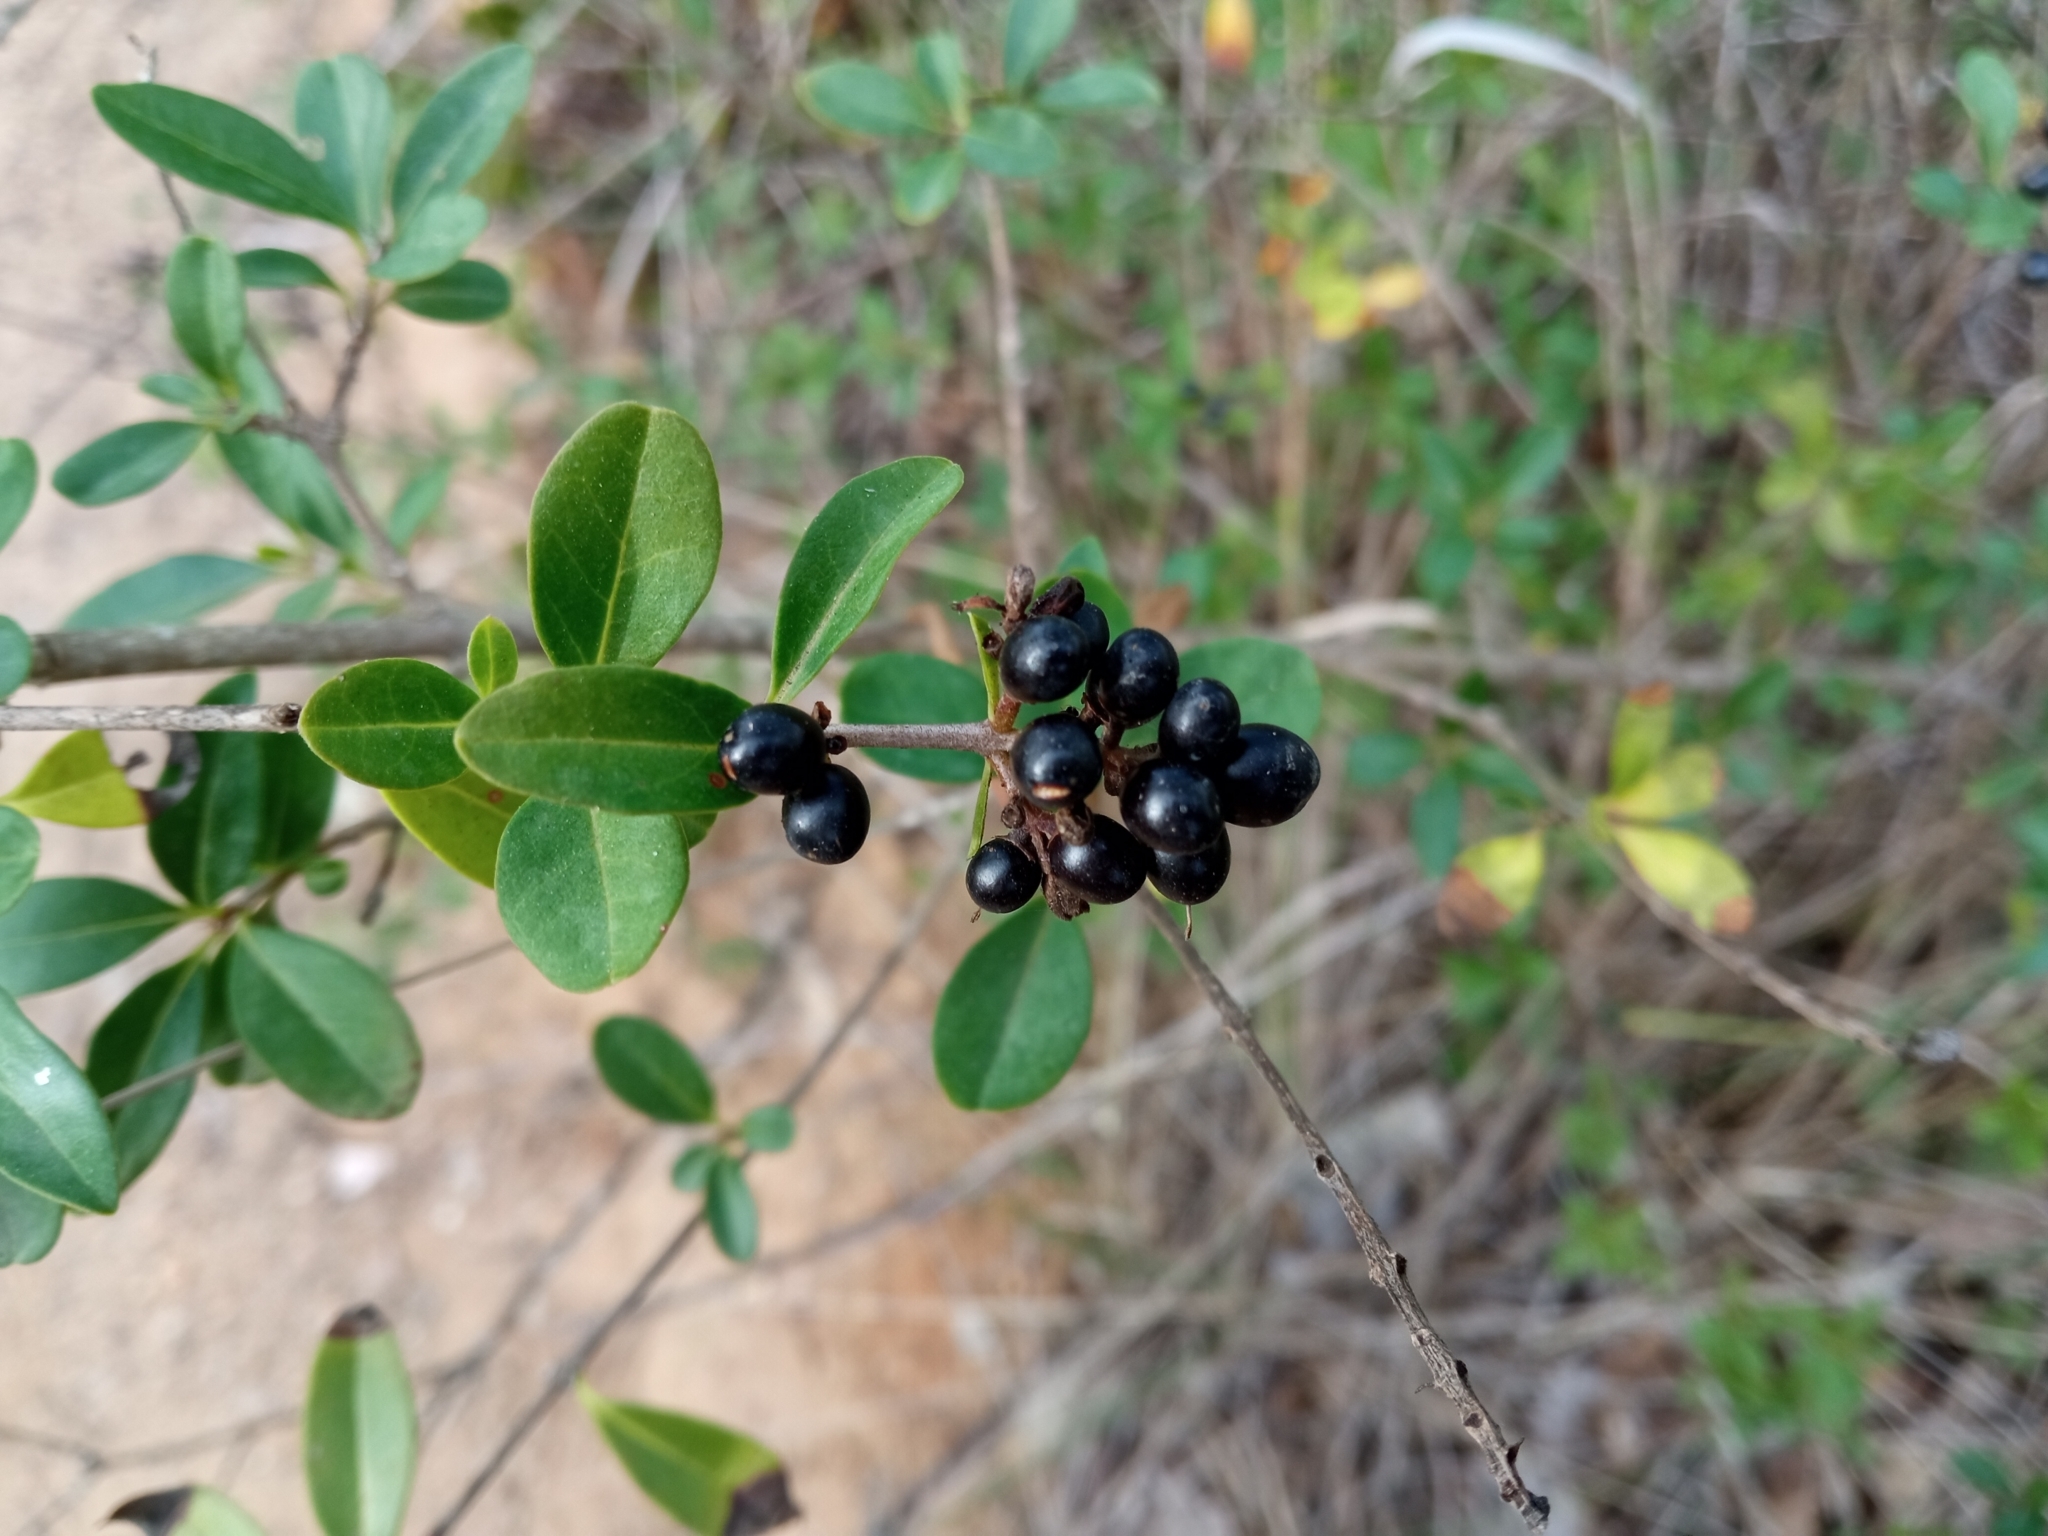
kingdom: Plantae
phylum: Tracheophyta
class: Magnoliopsida
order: Lamiales
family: Oleaceae
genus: Ligustrum
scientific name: Ligustrum vulgare
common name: Wild privet
